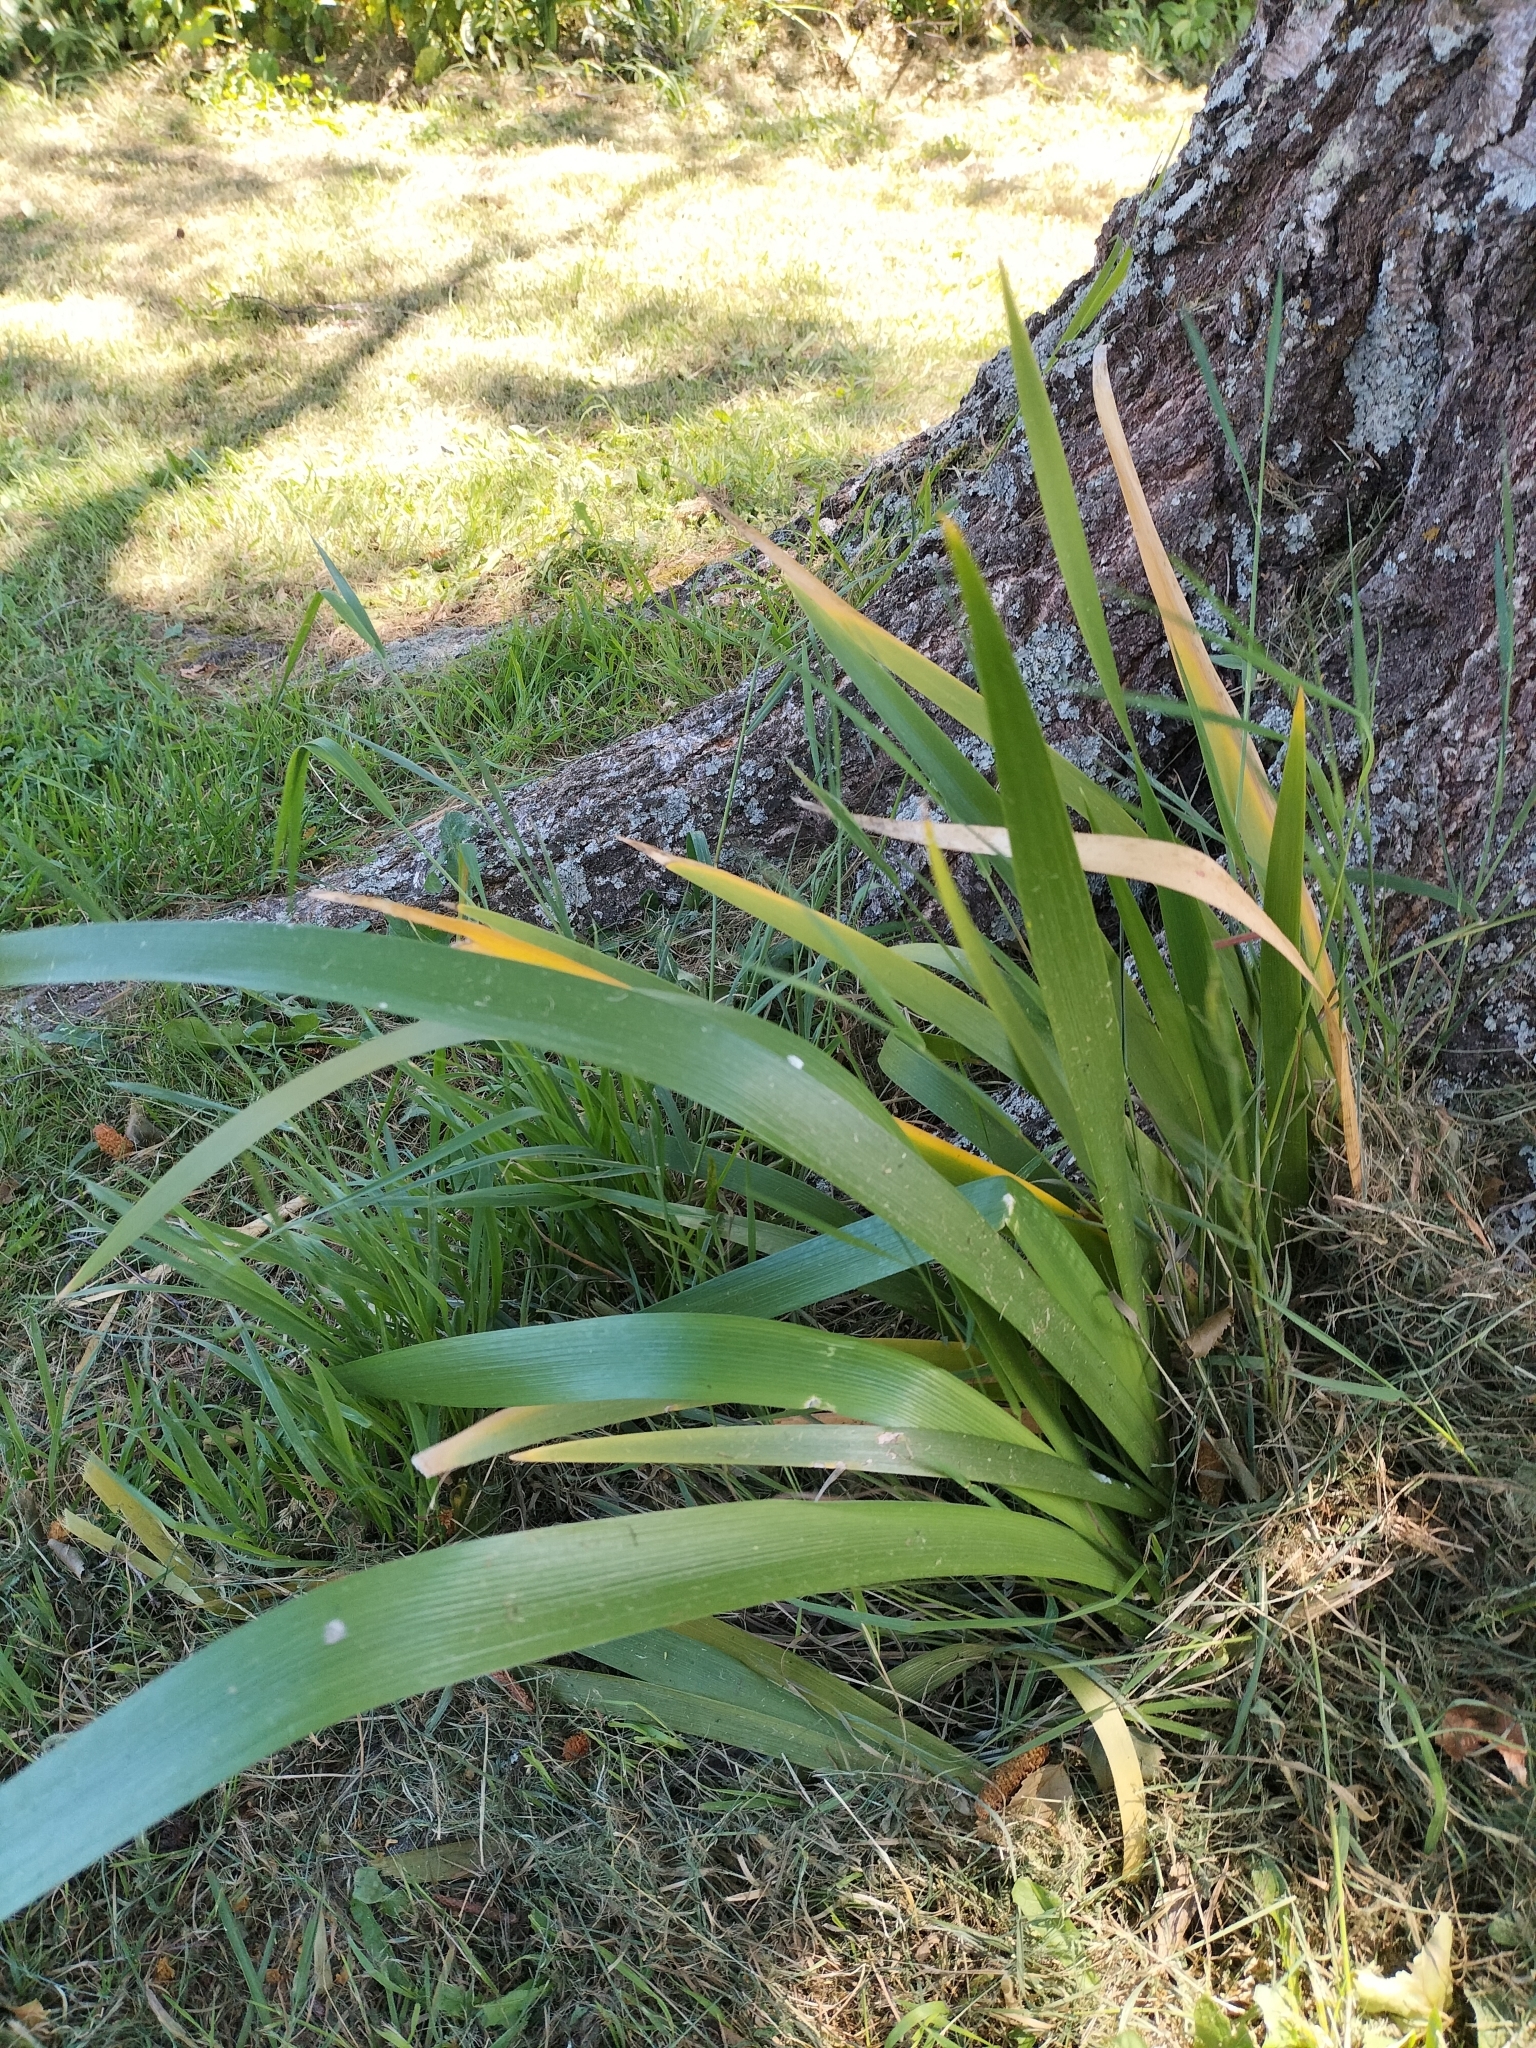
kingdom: Plantae
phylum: Tracheophyta
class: Liliopsida
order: Asparagales
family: Iridaceae
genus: Iris
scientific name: Iris foetidissima
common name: Stinking iris
